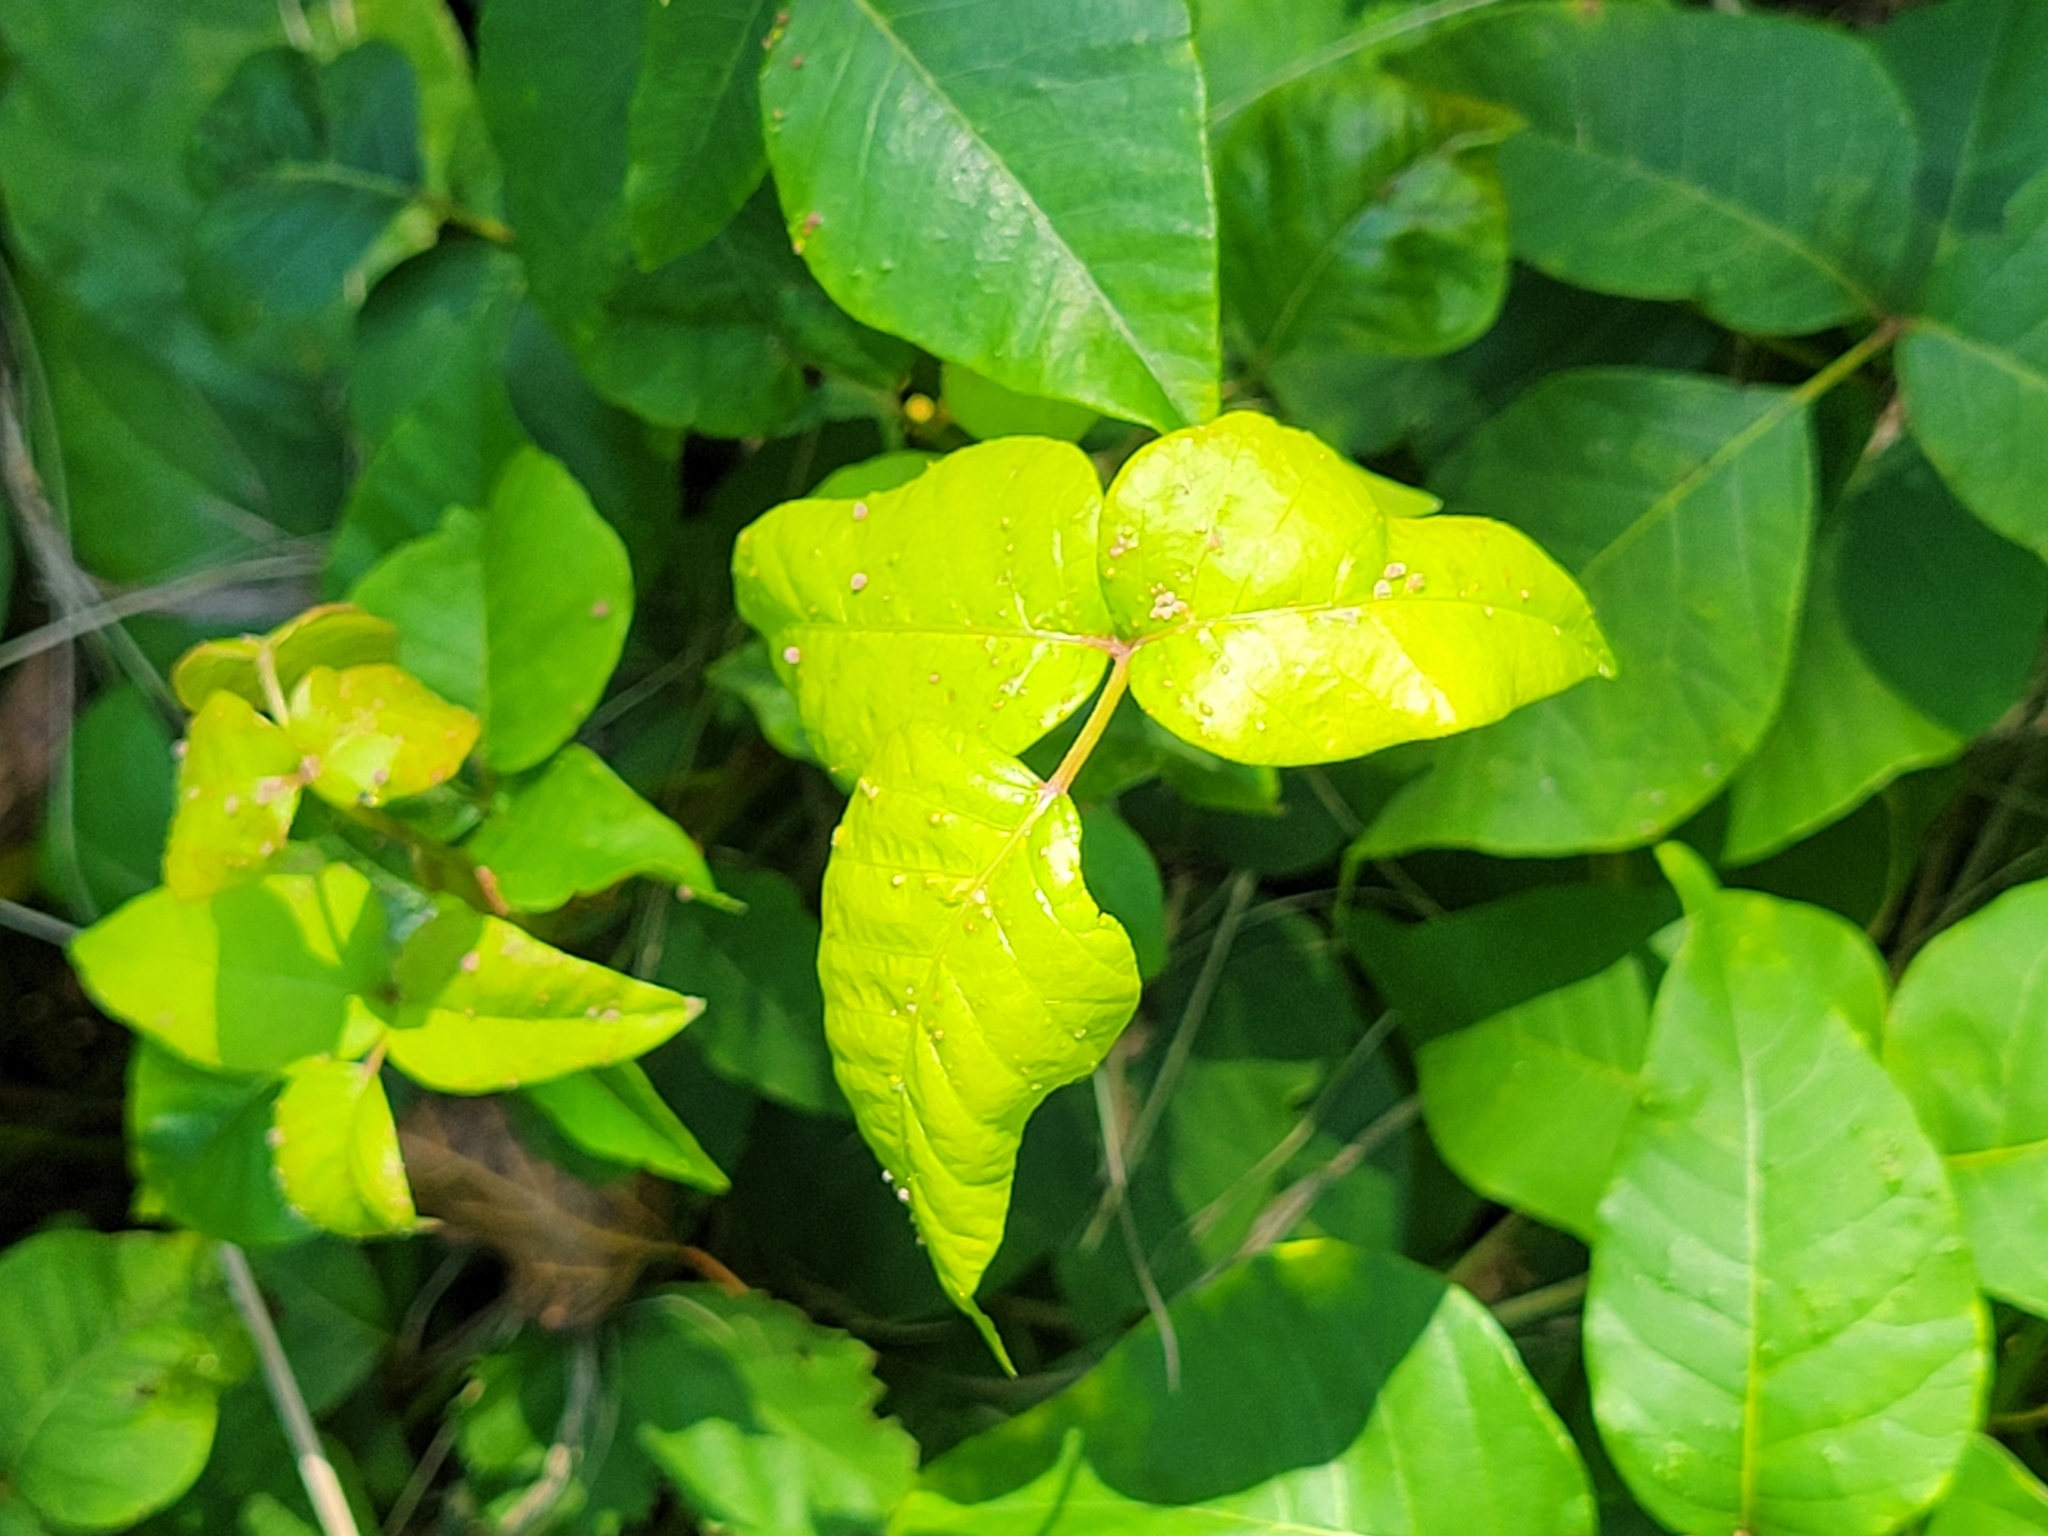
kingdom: Plantae
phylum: Tracheophyta
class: Magnoliopsida
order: Sapindales
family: Anacardiaceae
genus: Toxicodendron
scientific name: Toxicodendron radicans
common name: Poison ivy
